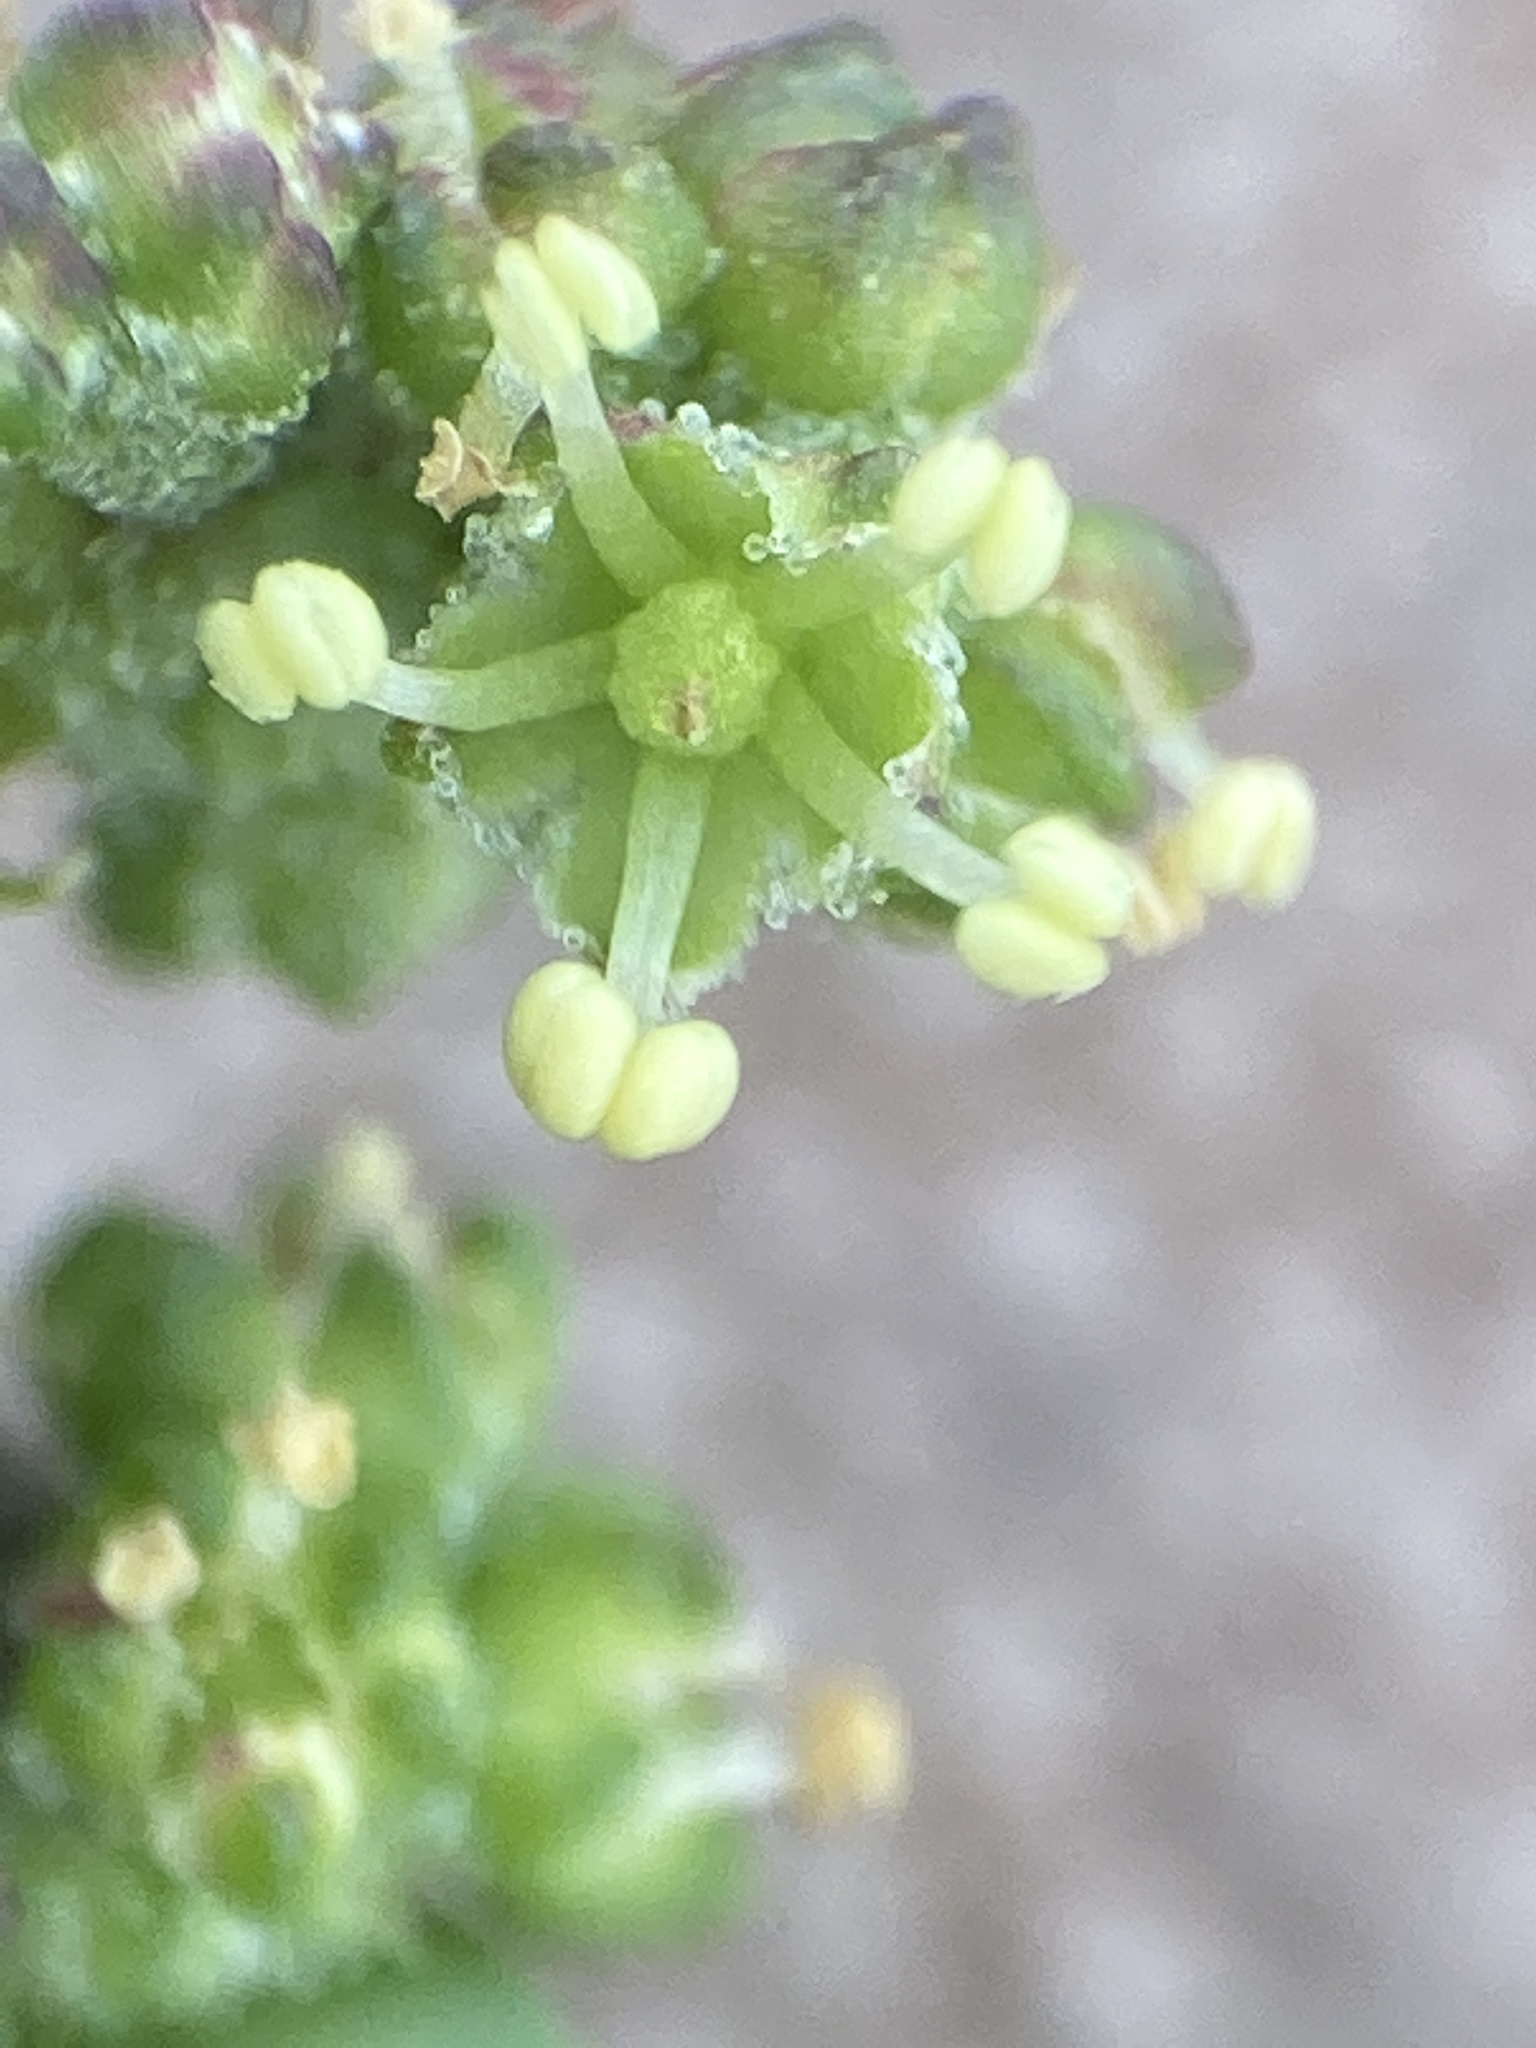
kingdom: Plantae
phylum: Tracheophyta
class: Magnoliopsida
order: Caryophyllales
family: Amaranthaceae
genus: Chenopodiastrum
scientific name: Chenopodiastrum murale
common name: Sowbane
